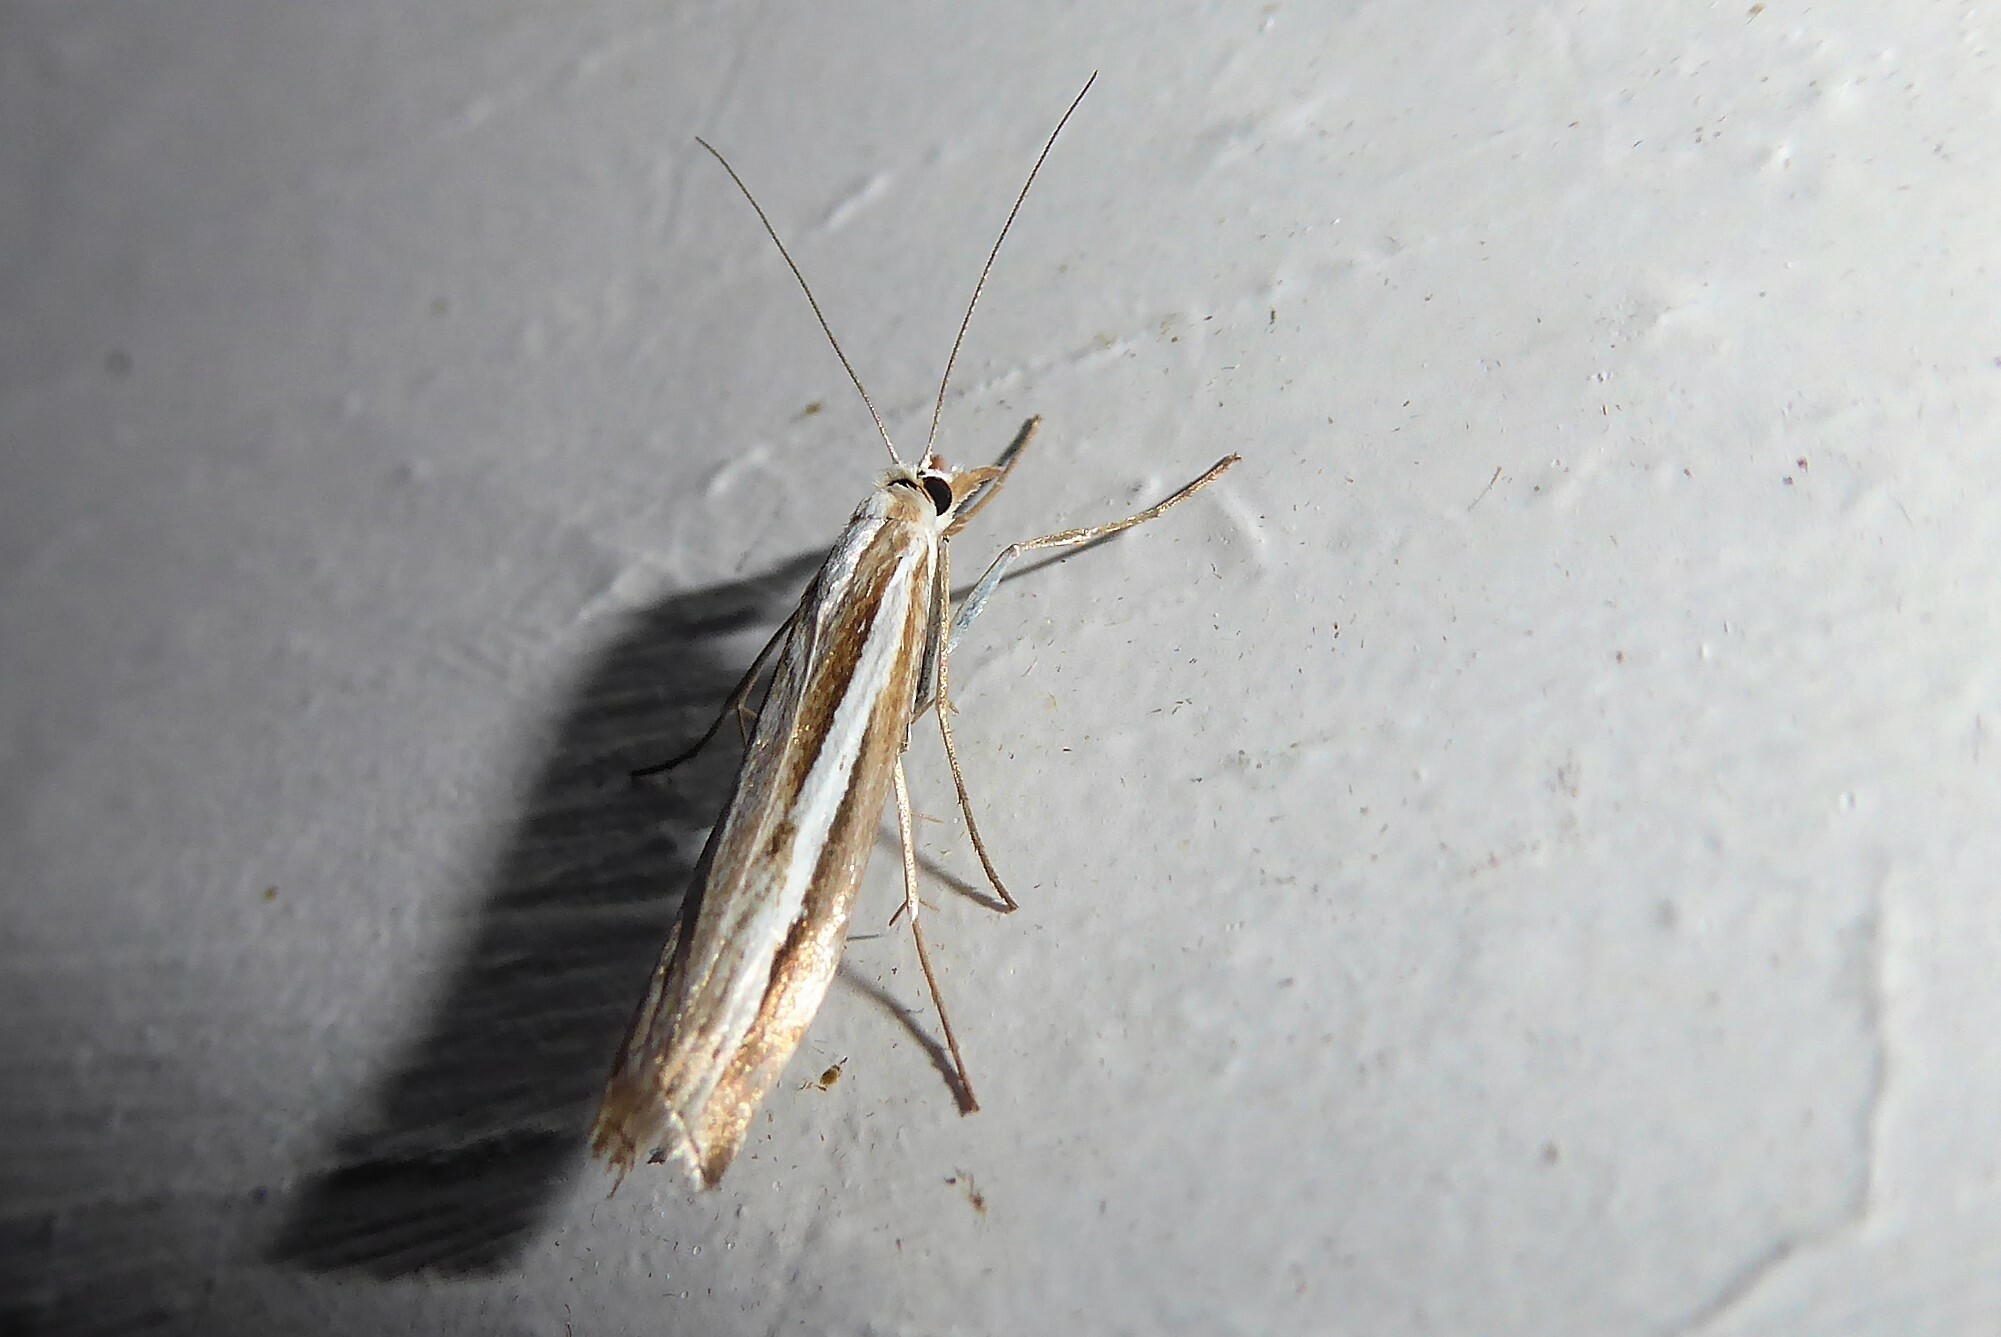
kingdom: Animalia
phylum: Arthropoda
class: Insecta
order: Lepidoptera
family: Crambidae
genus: Orocrambus
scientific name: Orocrambus vittellus
